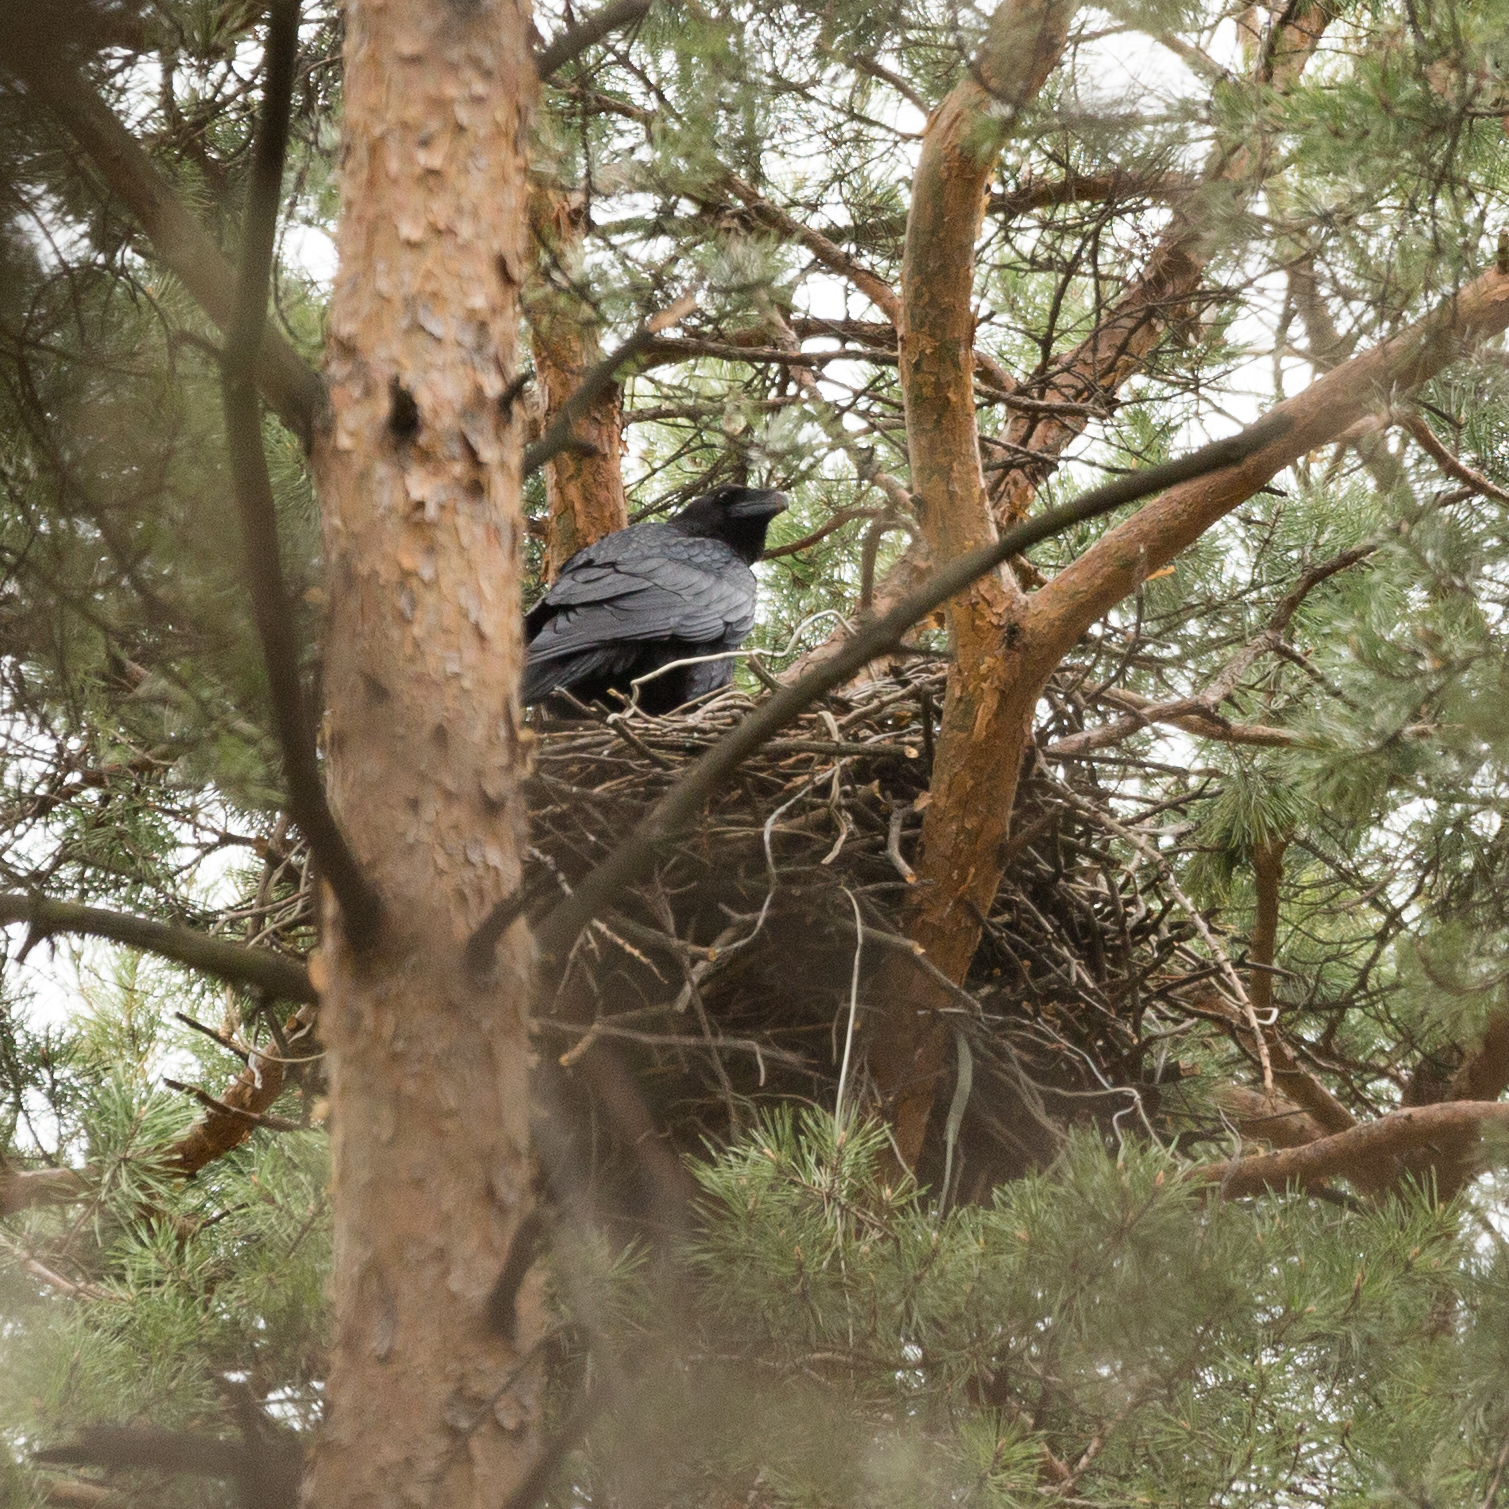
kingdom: Animalia
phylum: Chordata
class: Aves
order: Passeriformes
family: Corvidae
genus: Corvus
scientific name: Corvus corax
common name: Common raven
